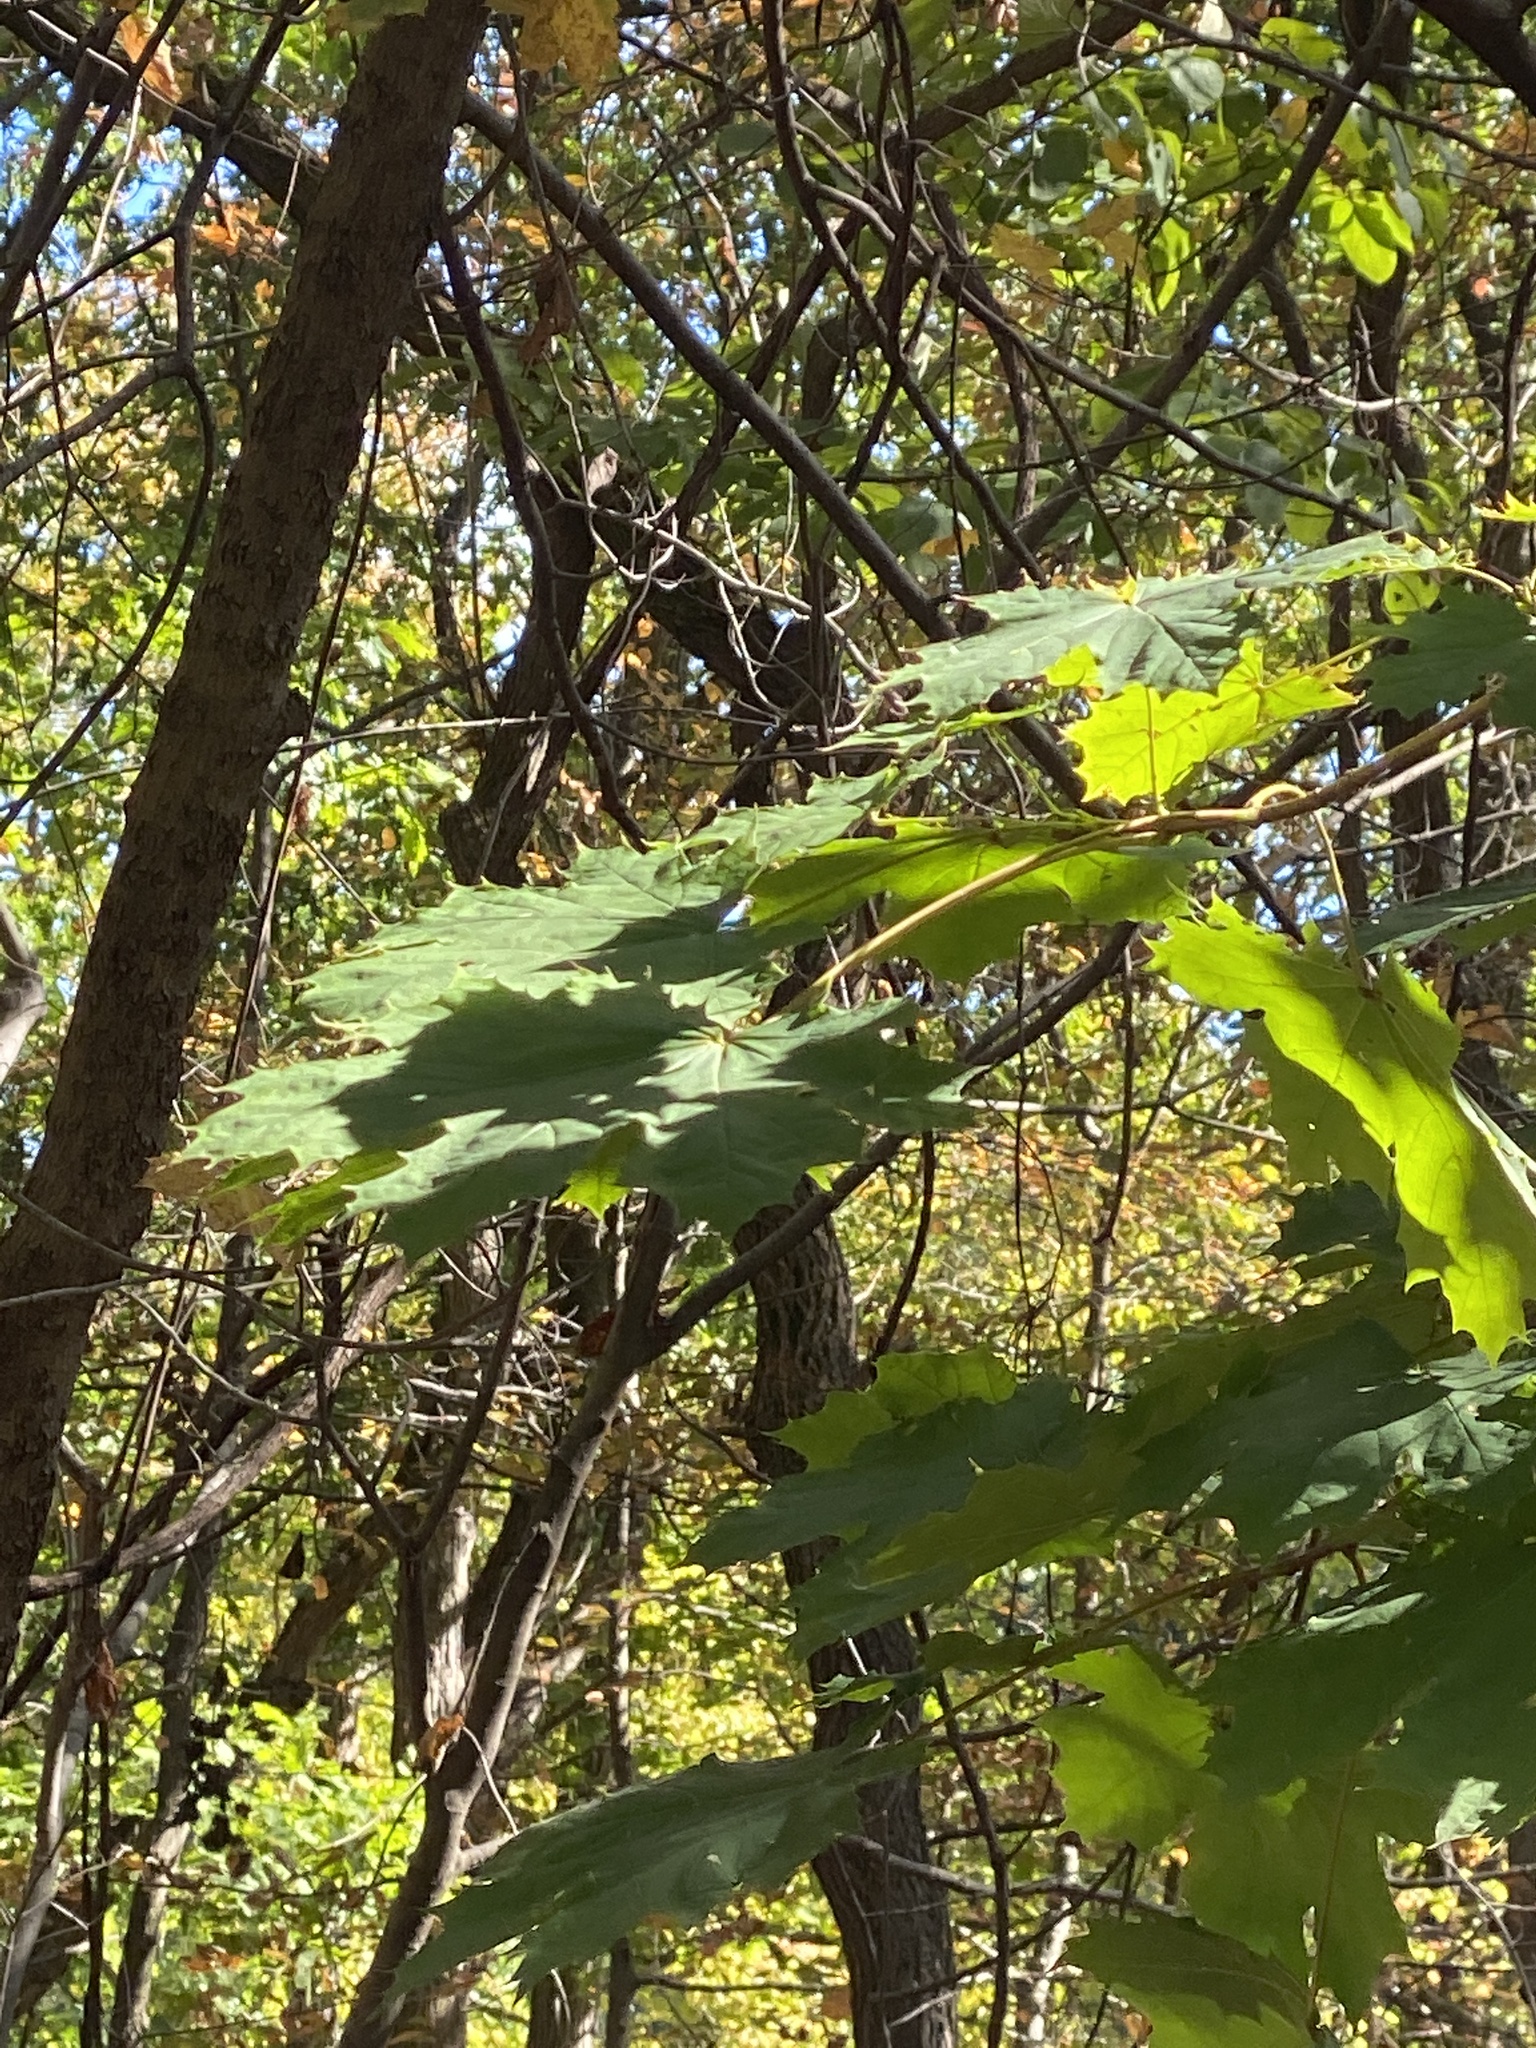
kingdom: Plantae
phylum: Tracheophyta
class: Magnoliopsida
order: Sapindales
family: Sapindaceae
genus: Acer
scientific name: Acer platanoides
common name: Norway maple
